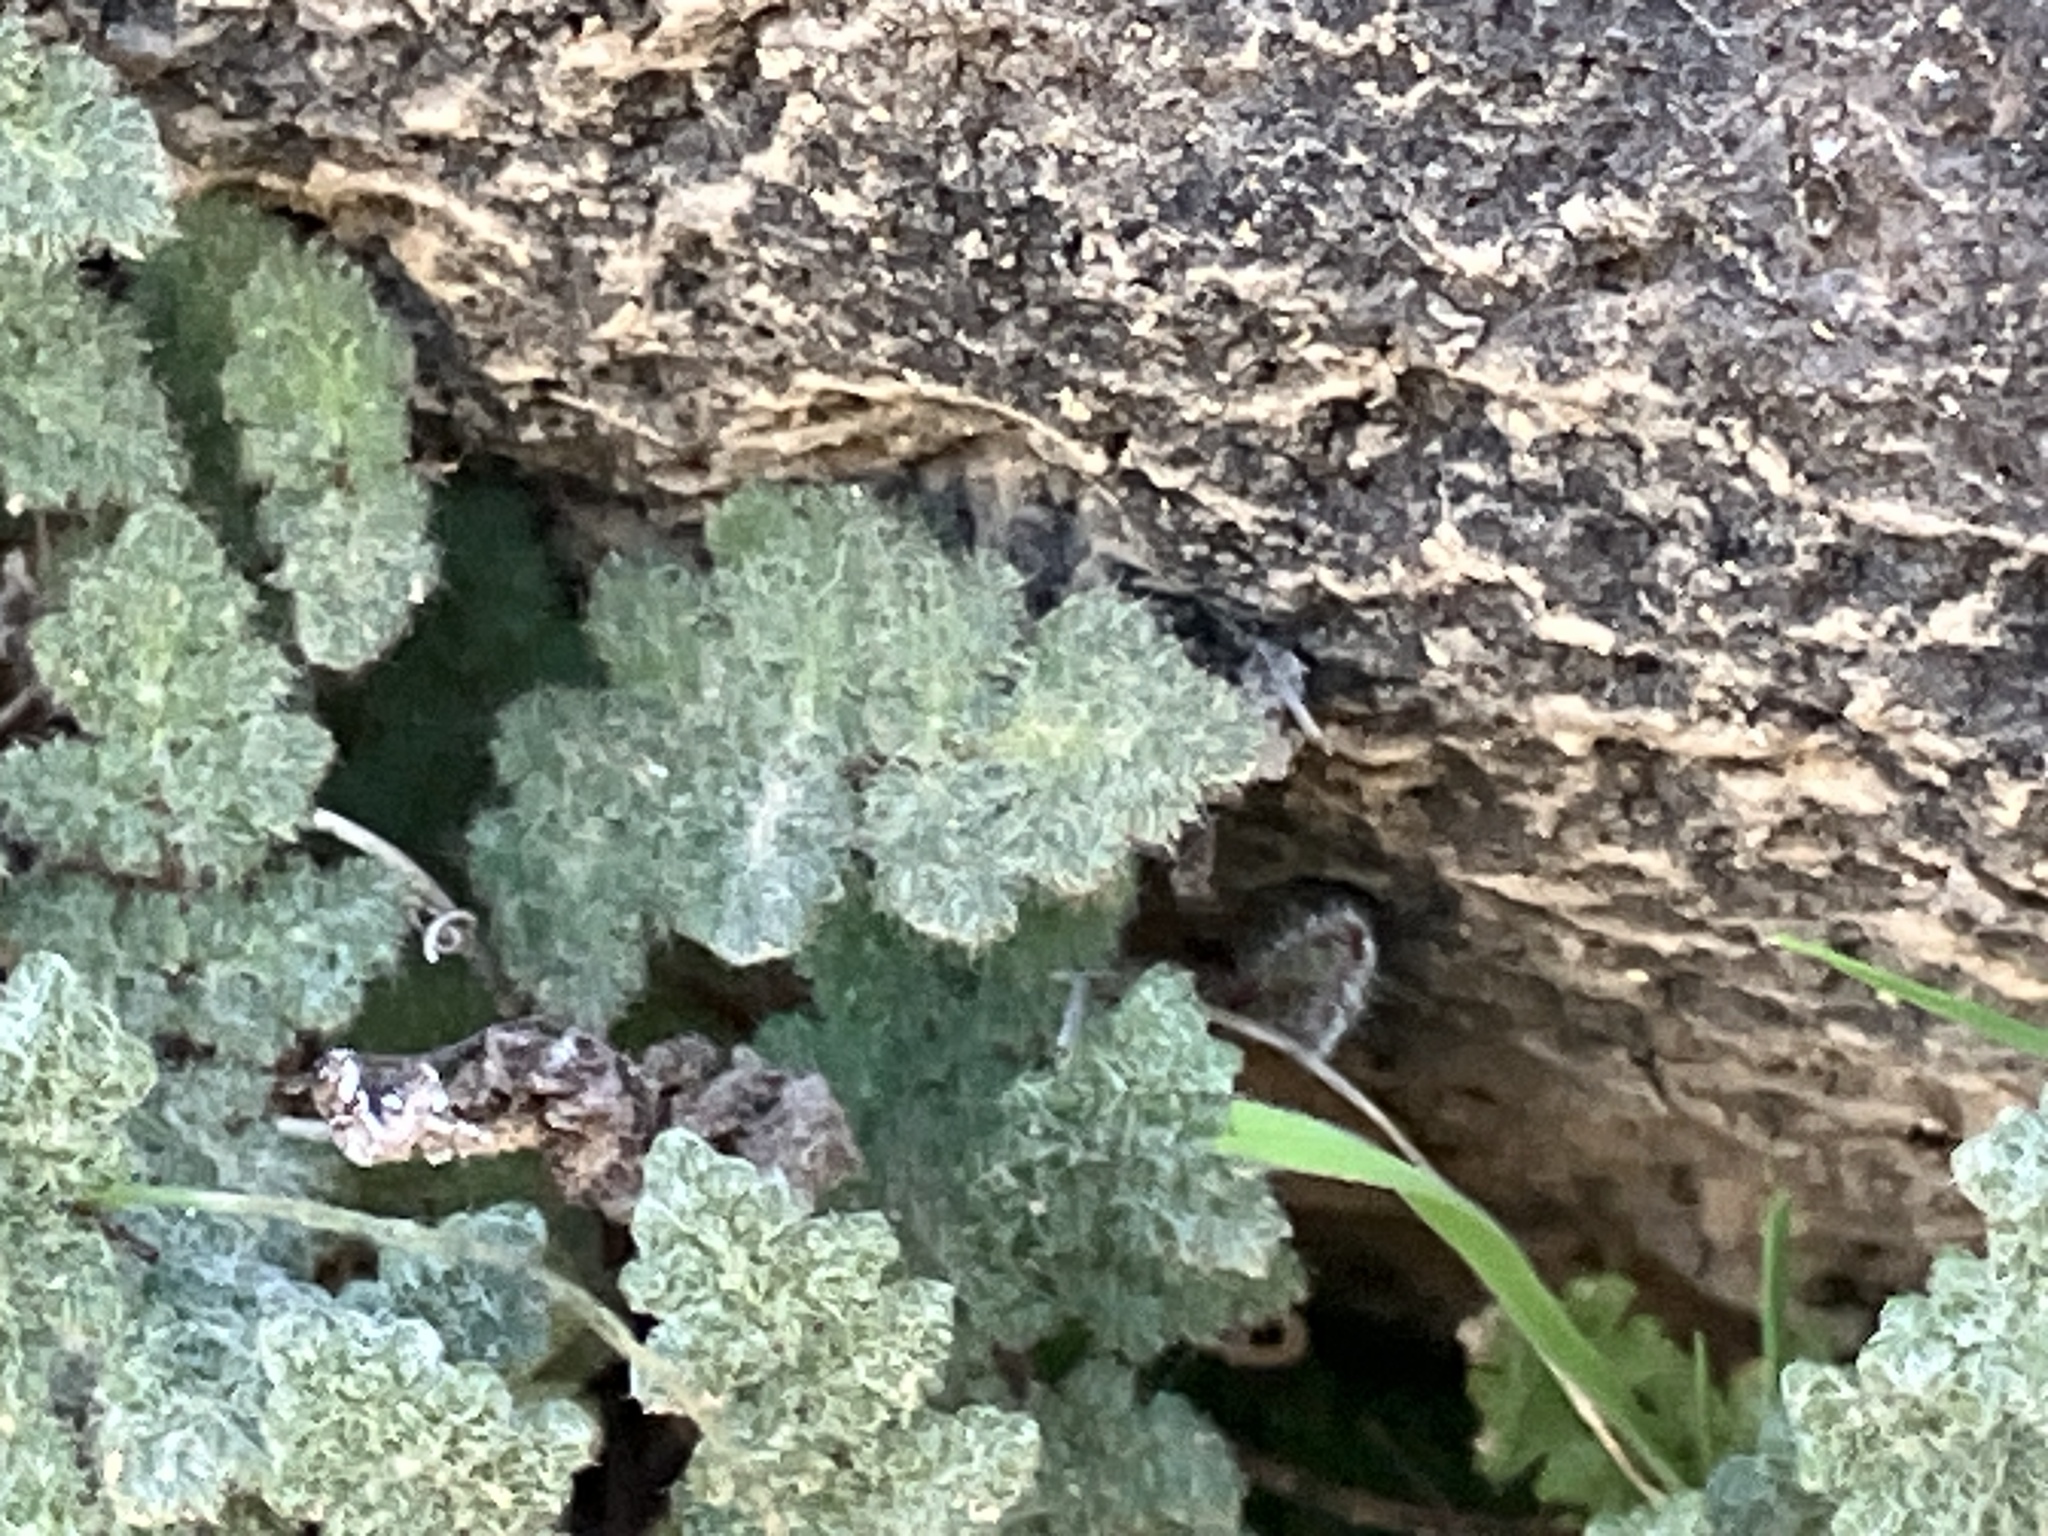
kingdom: Plantae
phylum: Tracheophyta
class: Polypodiopsida
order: Polypodiales
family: Pteridaceae
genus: Myriopteris
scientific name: Myriopteris parryi
